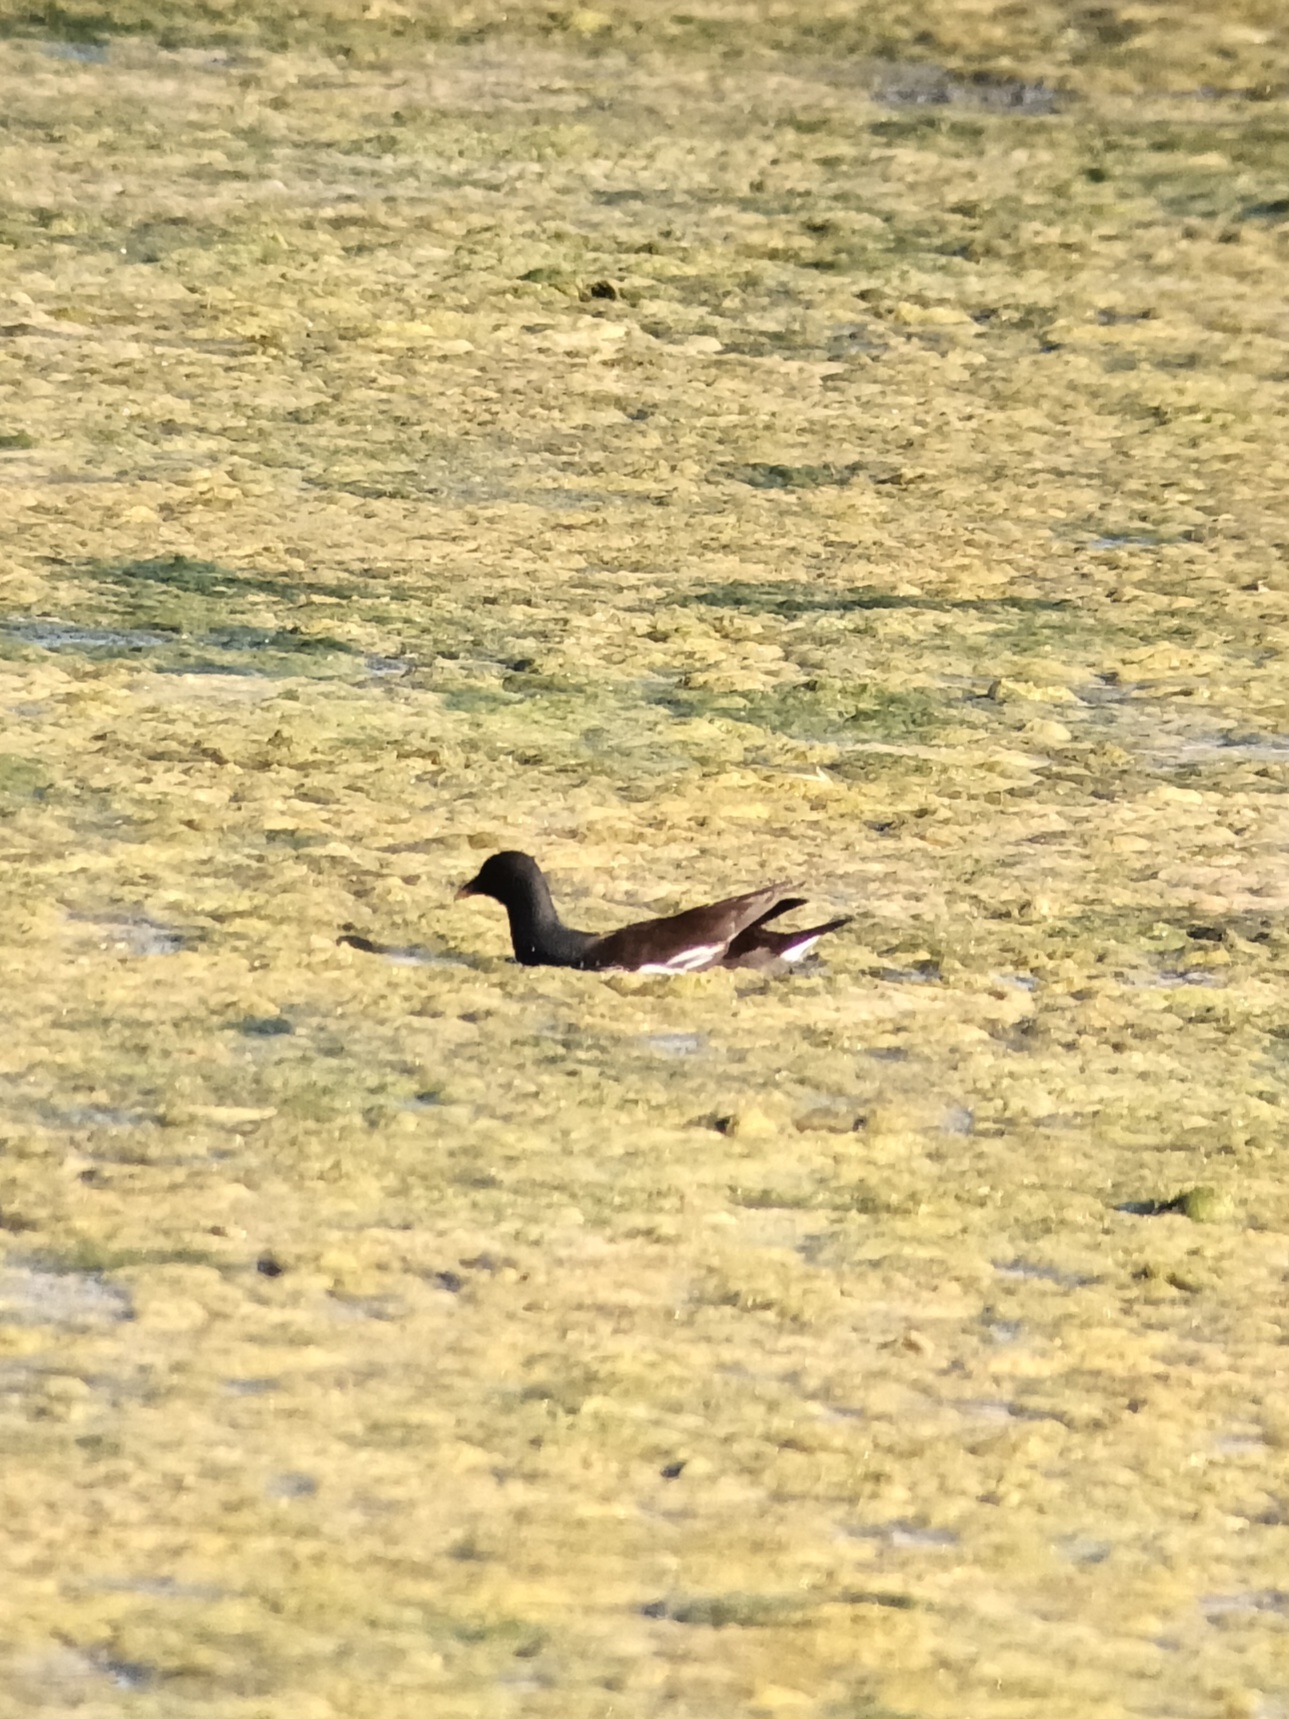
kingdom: Animalia
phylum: Chordata
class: Aves
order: Gruiformes
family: Rallidae
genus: Gallinula
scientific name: Gallinula chloropus
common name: Common moorhen
